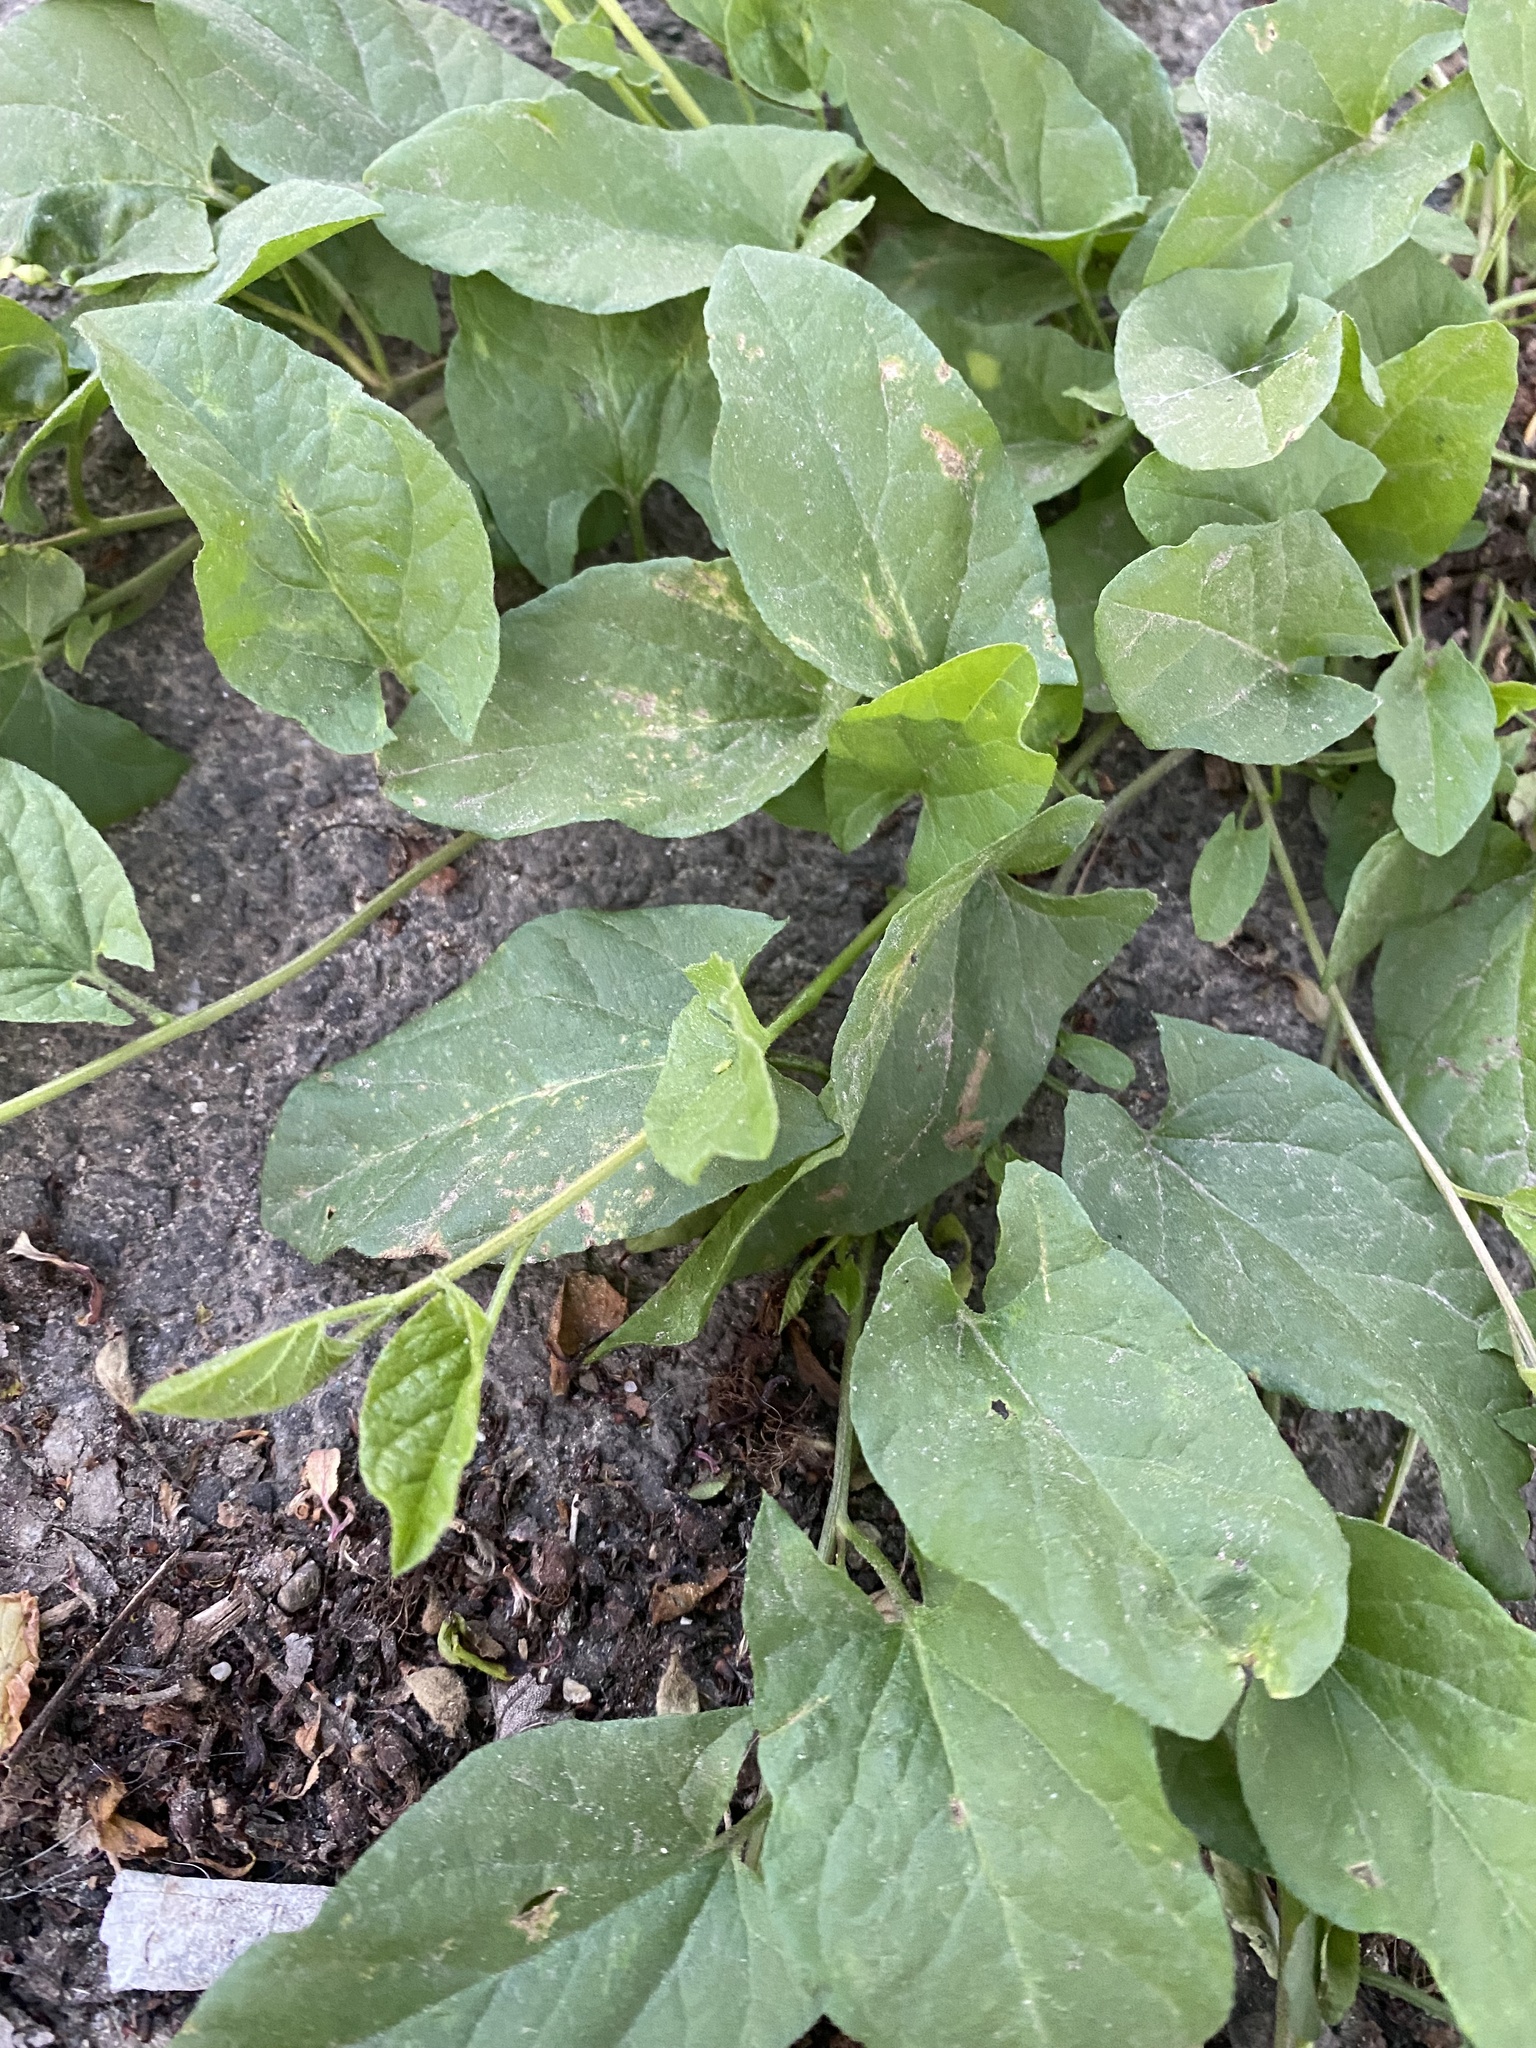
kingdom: Plantae
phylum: Tracheophyta
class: Magnoliopsida
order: Solanales
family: Convolvulaceae
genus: Convolvulus
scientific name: Convolvulus arvensis
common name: Field bindweed
